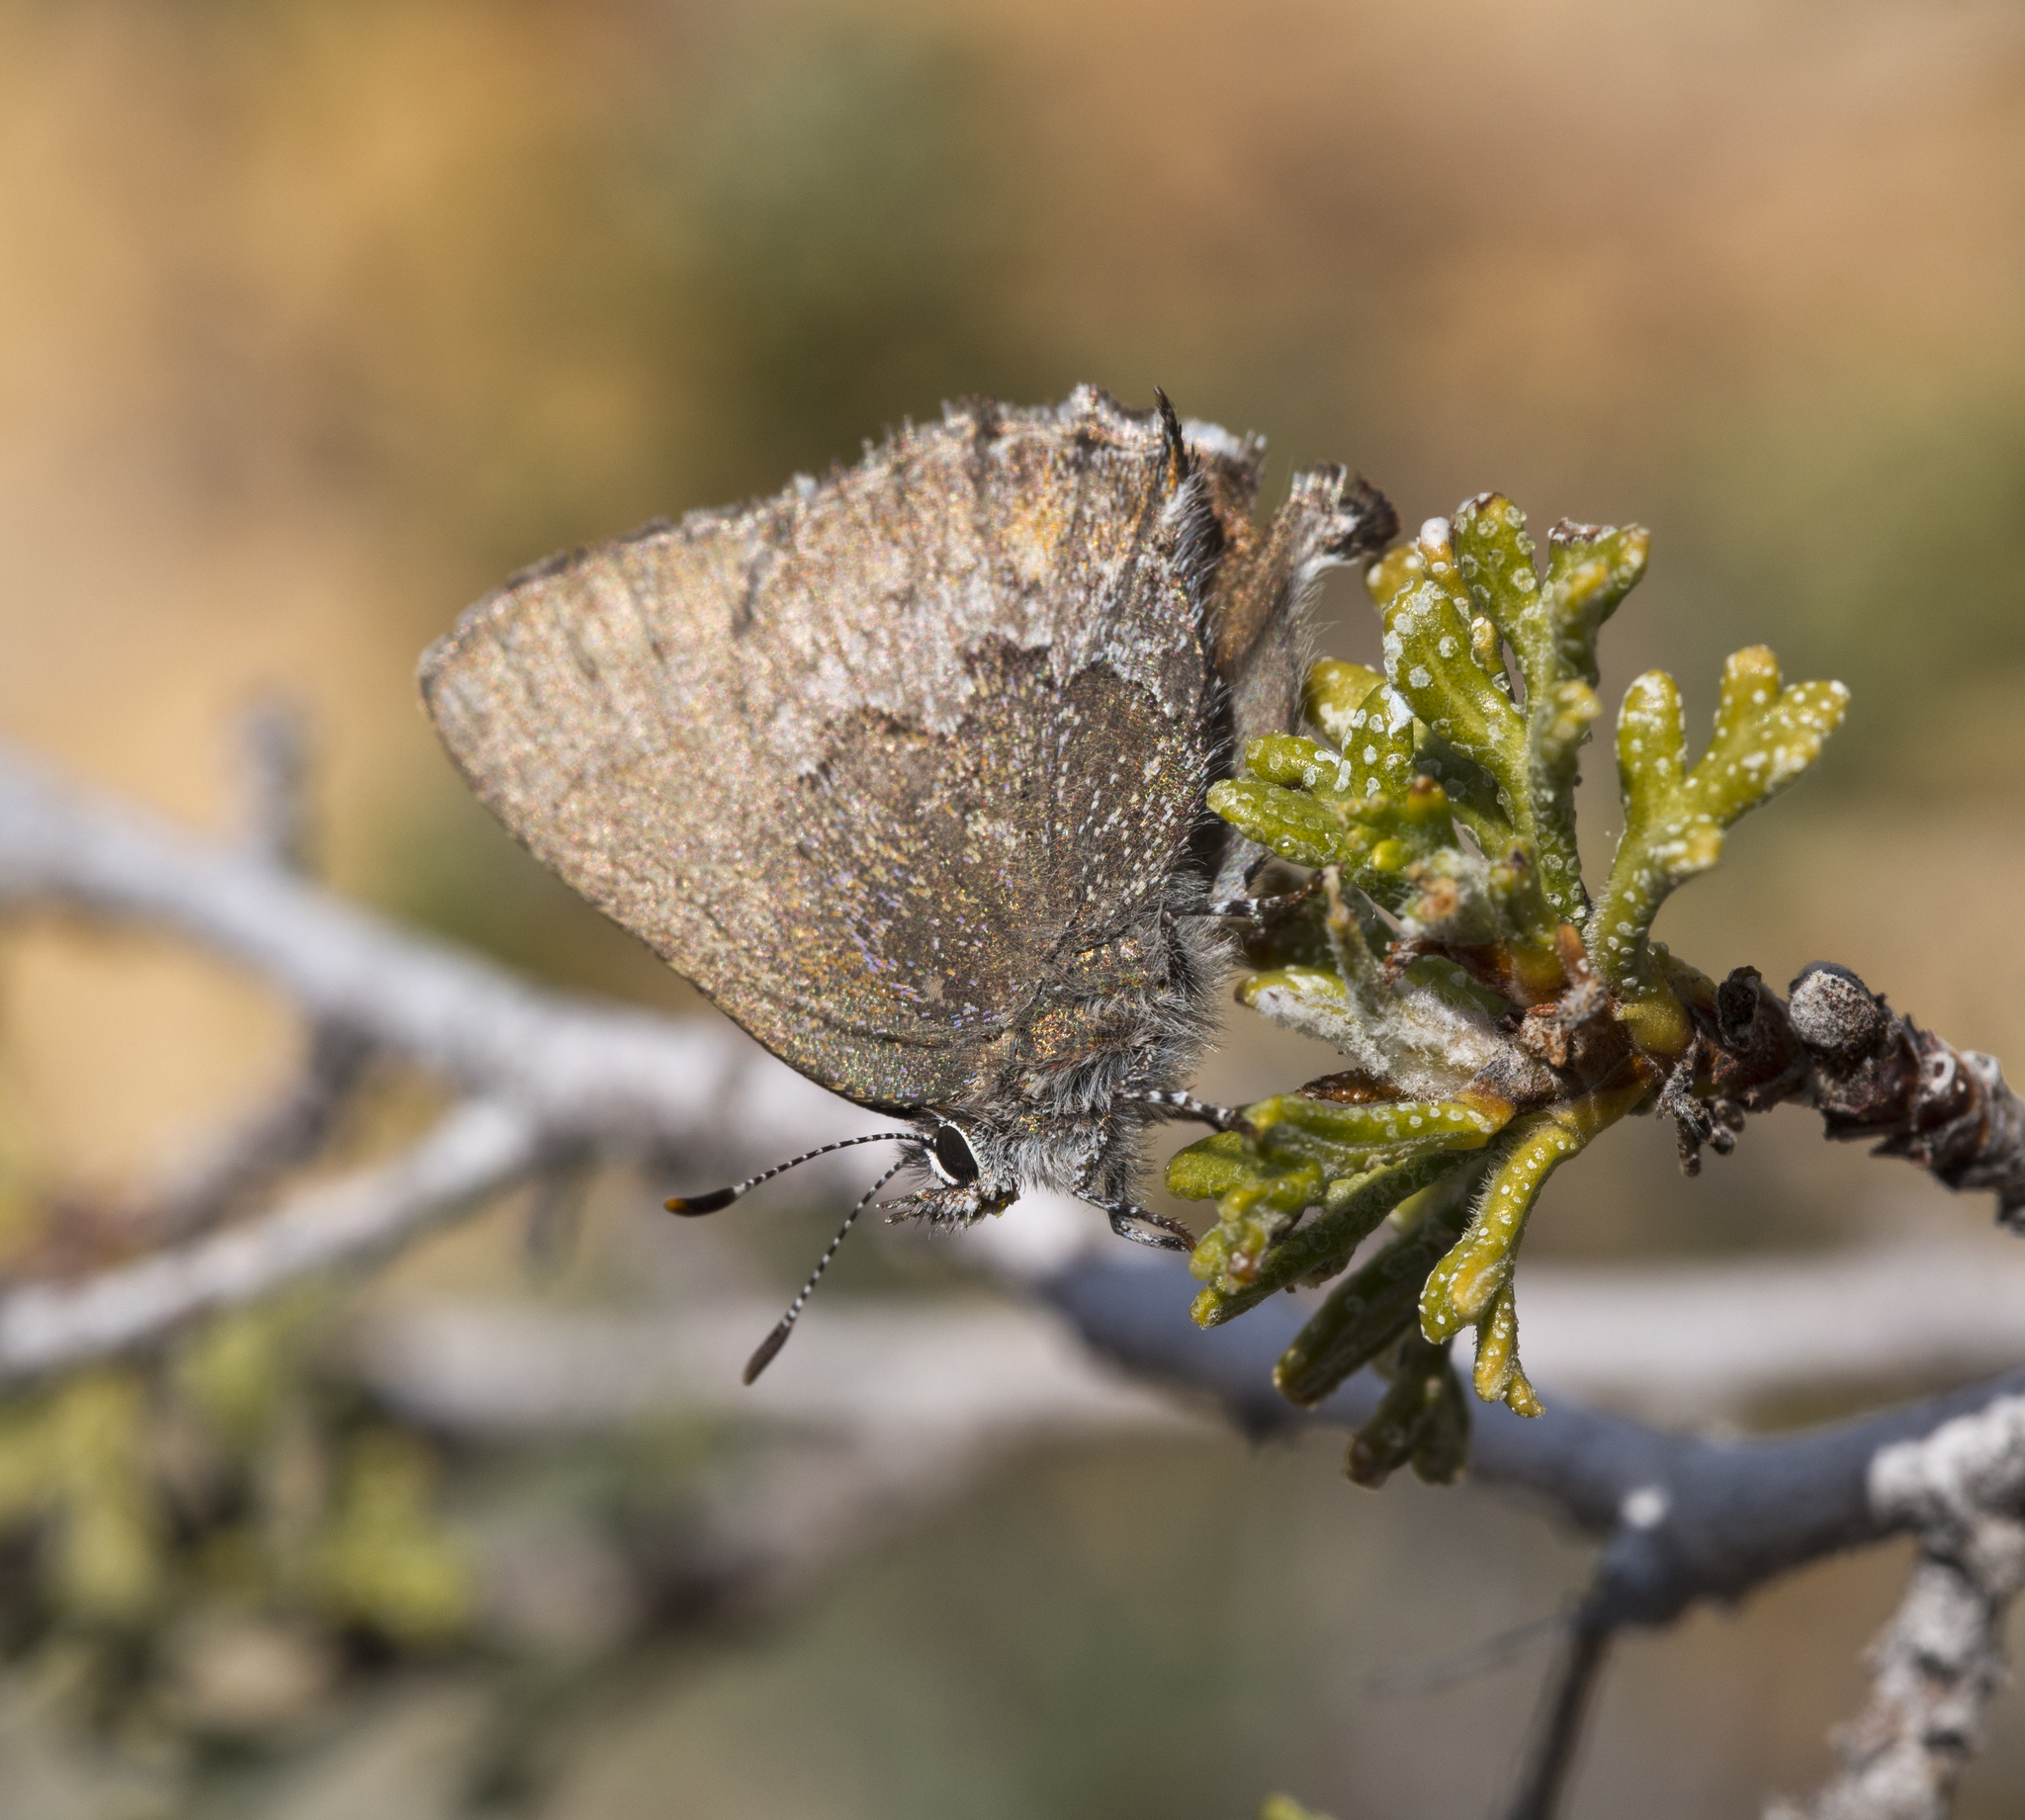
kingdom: Animalia
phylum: Arthropoda
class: Insecta
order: Lepidoptera
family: Lycaenidae
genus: Callophrys
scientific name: Callophrys fotis
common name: Desert elfin
